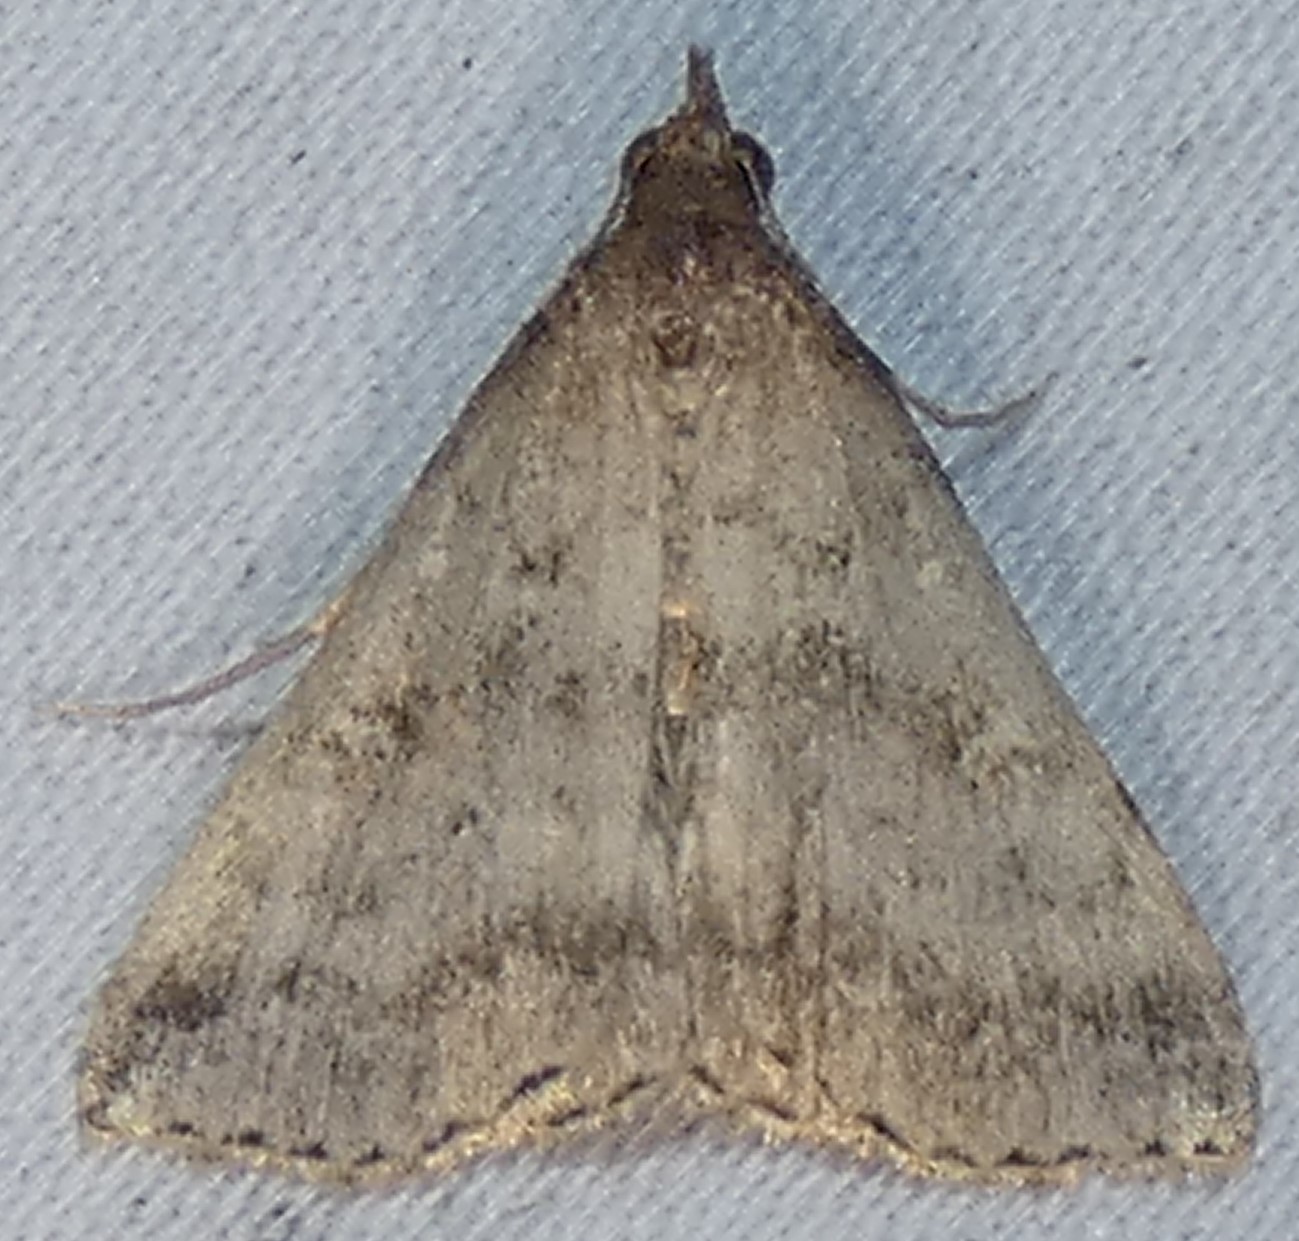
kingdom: Animalia
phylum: Arthropoda
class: Insecta
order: Lepidoptera
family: Erebidae
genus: Tetanolita
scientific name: Tetanolita floridana
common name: Florida tetanolita moth
